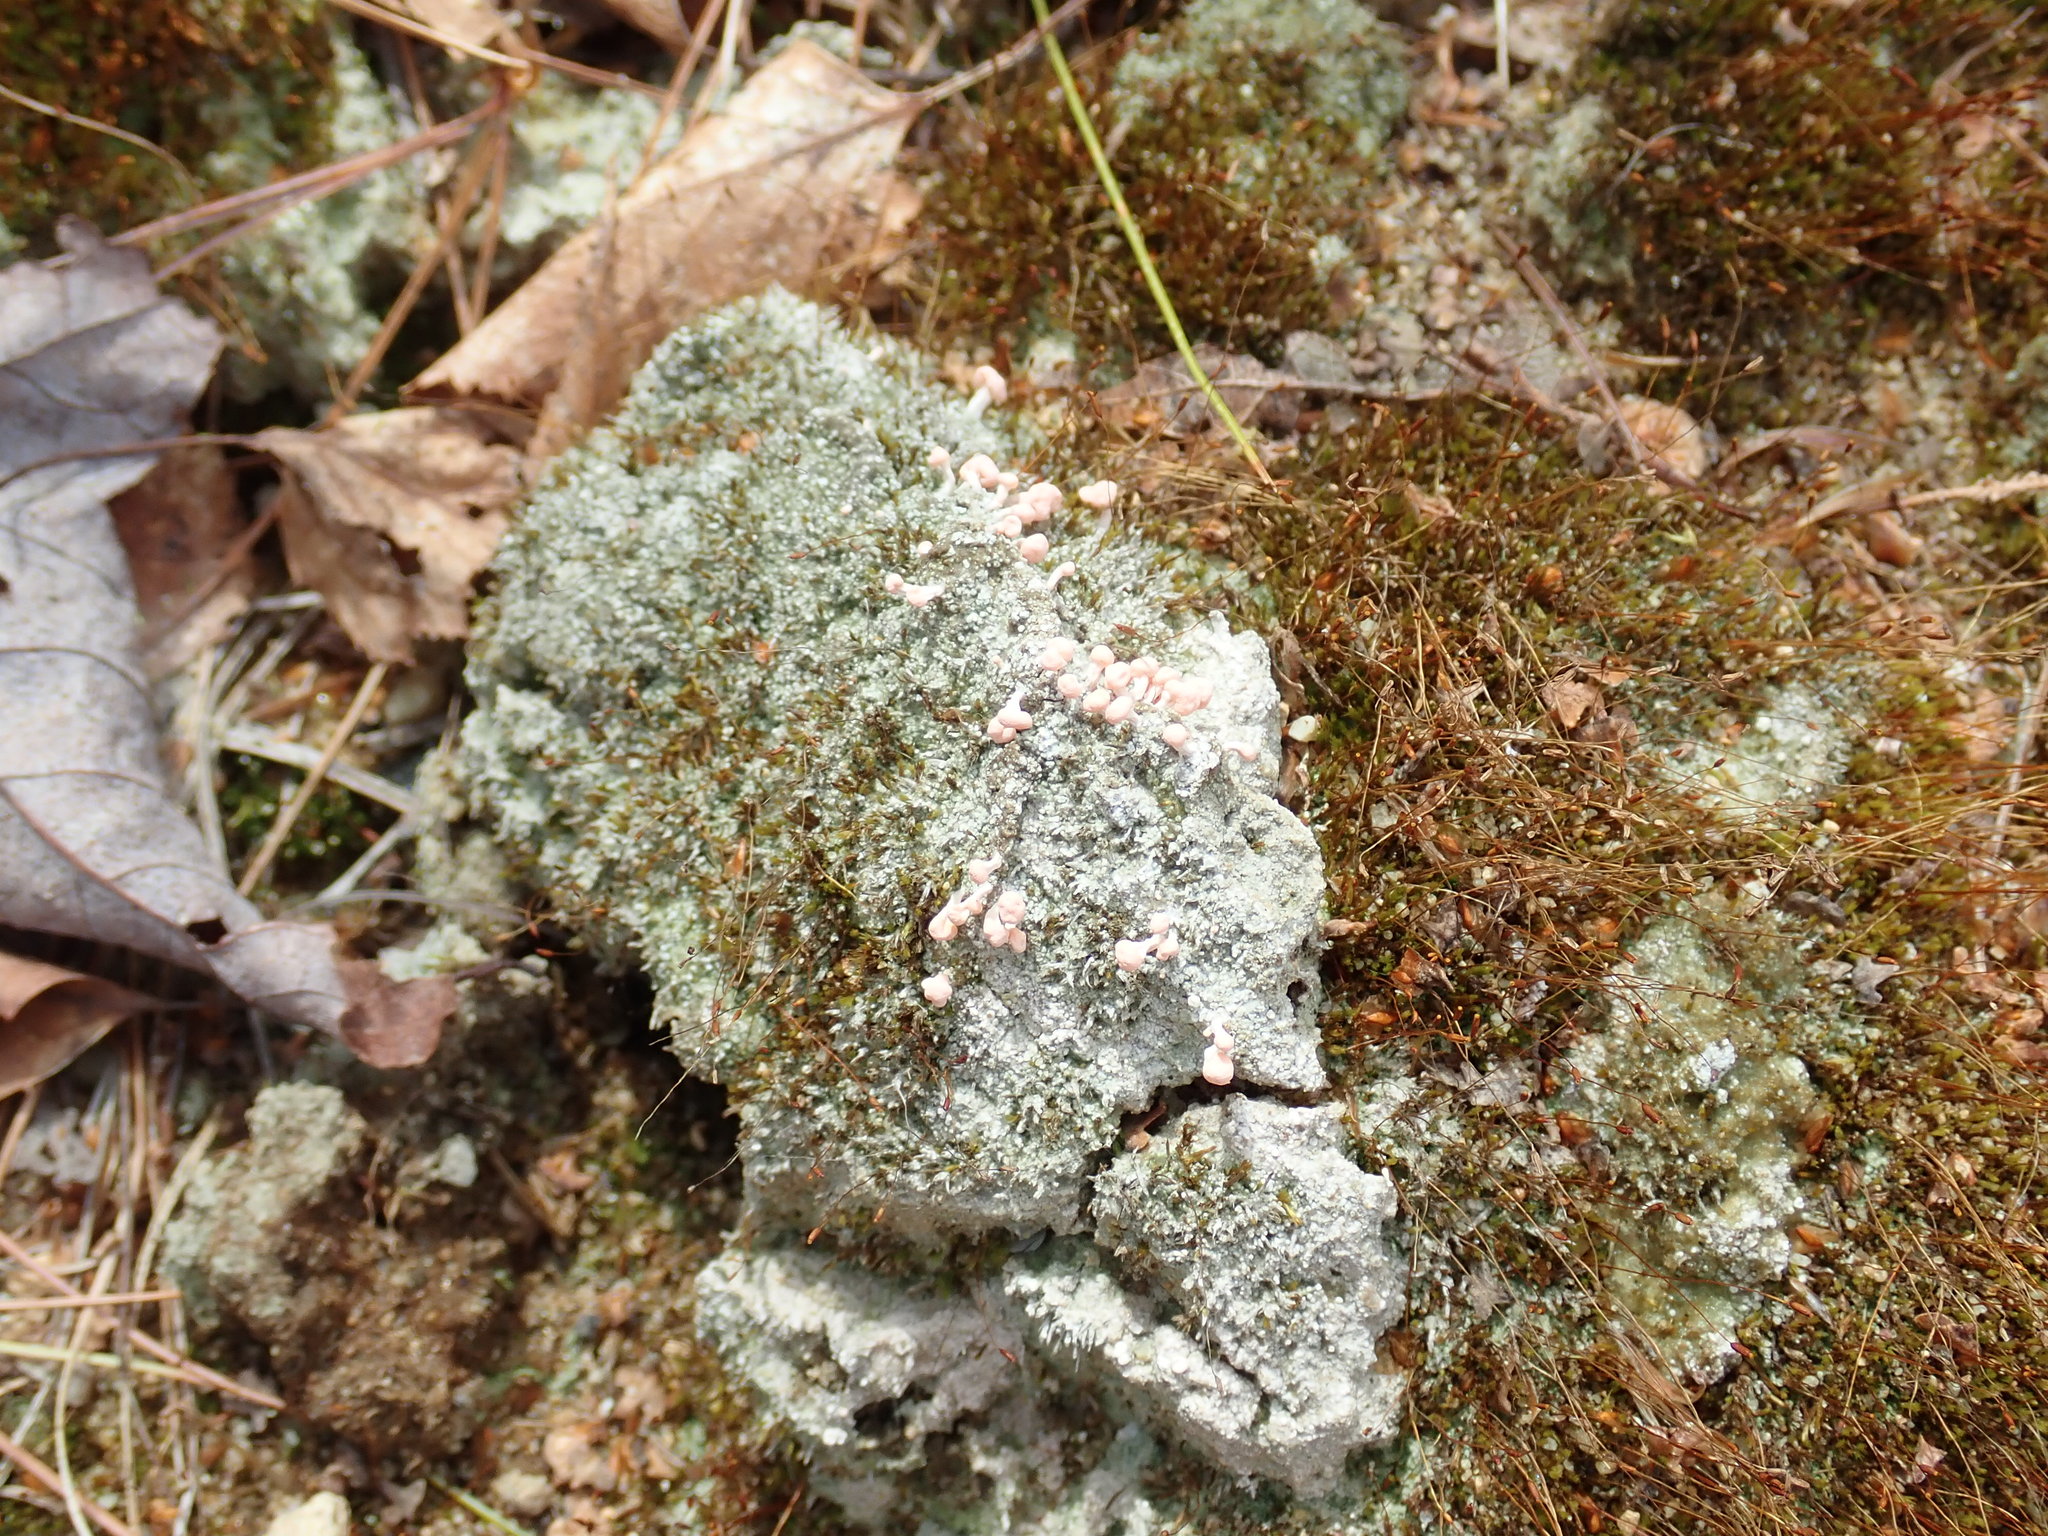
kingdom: Fungi
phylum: Ascomycota
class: Lecanoromycetes
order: Pertusariales
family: Icmadophilaceae
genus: Dibaeis
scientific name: Dibaeis baeomyces
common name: Pink earth lichen
